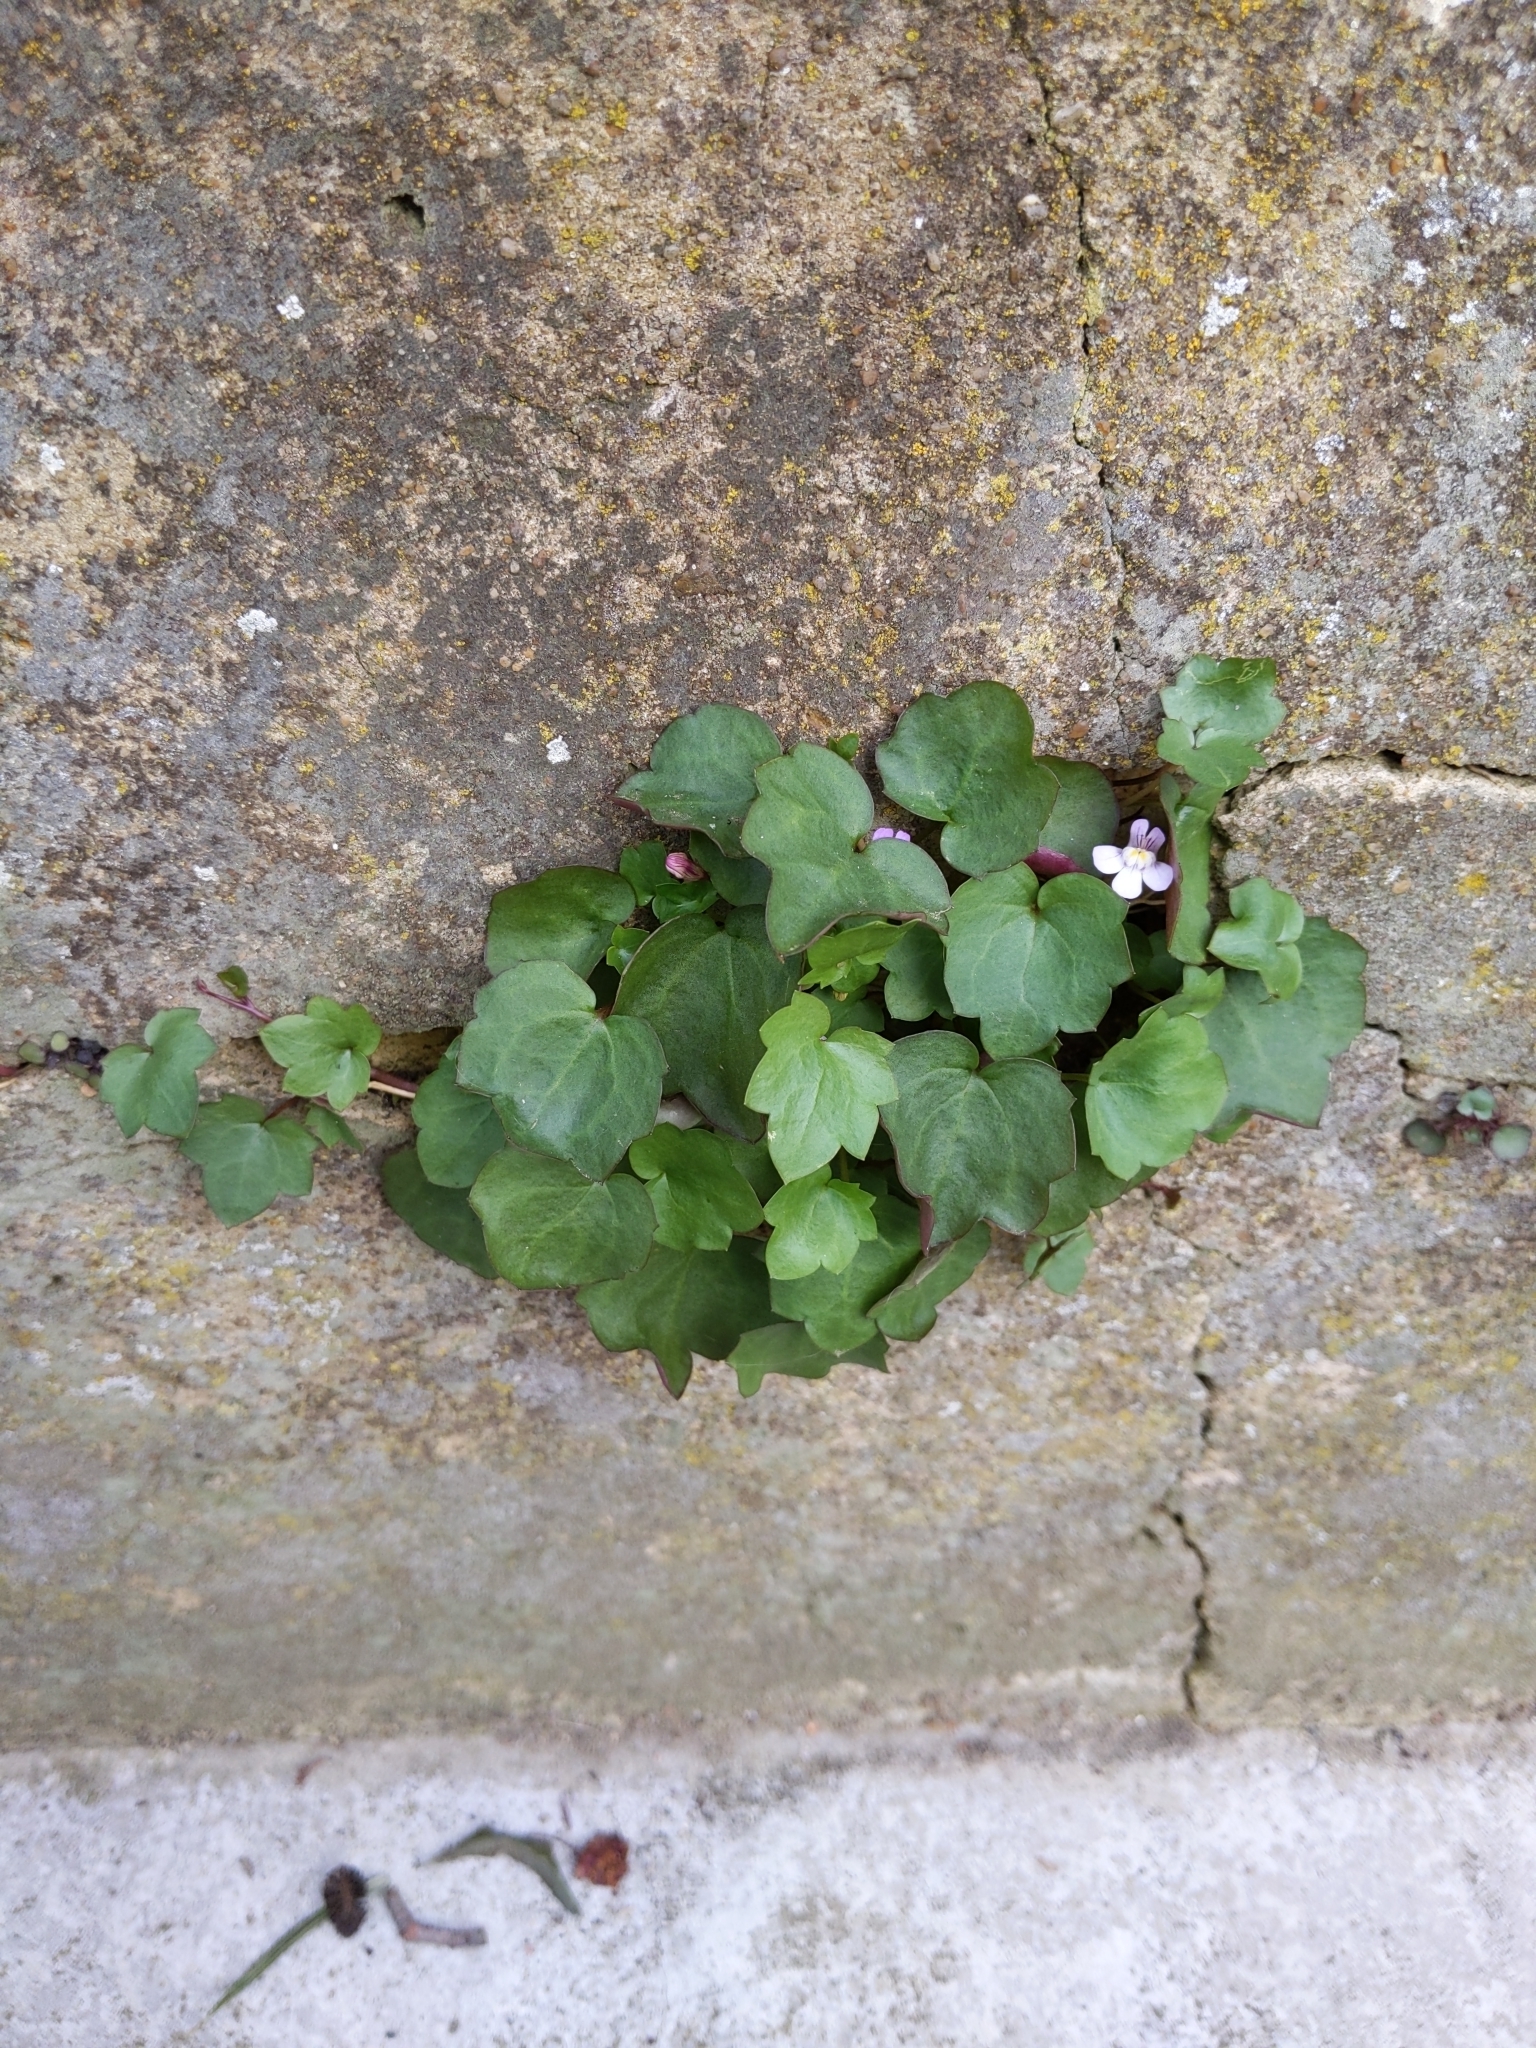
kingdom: Plantae
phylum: Tracheophyta
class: Magnoliopsida
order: Lamiales
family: Plantaginaceae
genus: Cymbalaria
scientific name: Cymbalaria muralis
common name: Ivy-leaved toadflax
